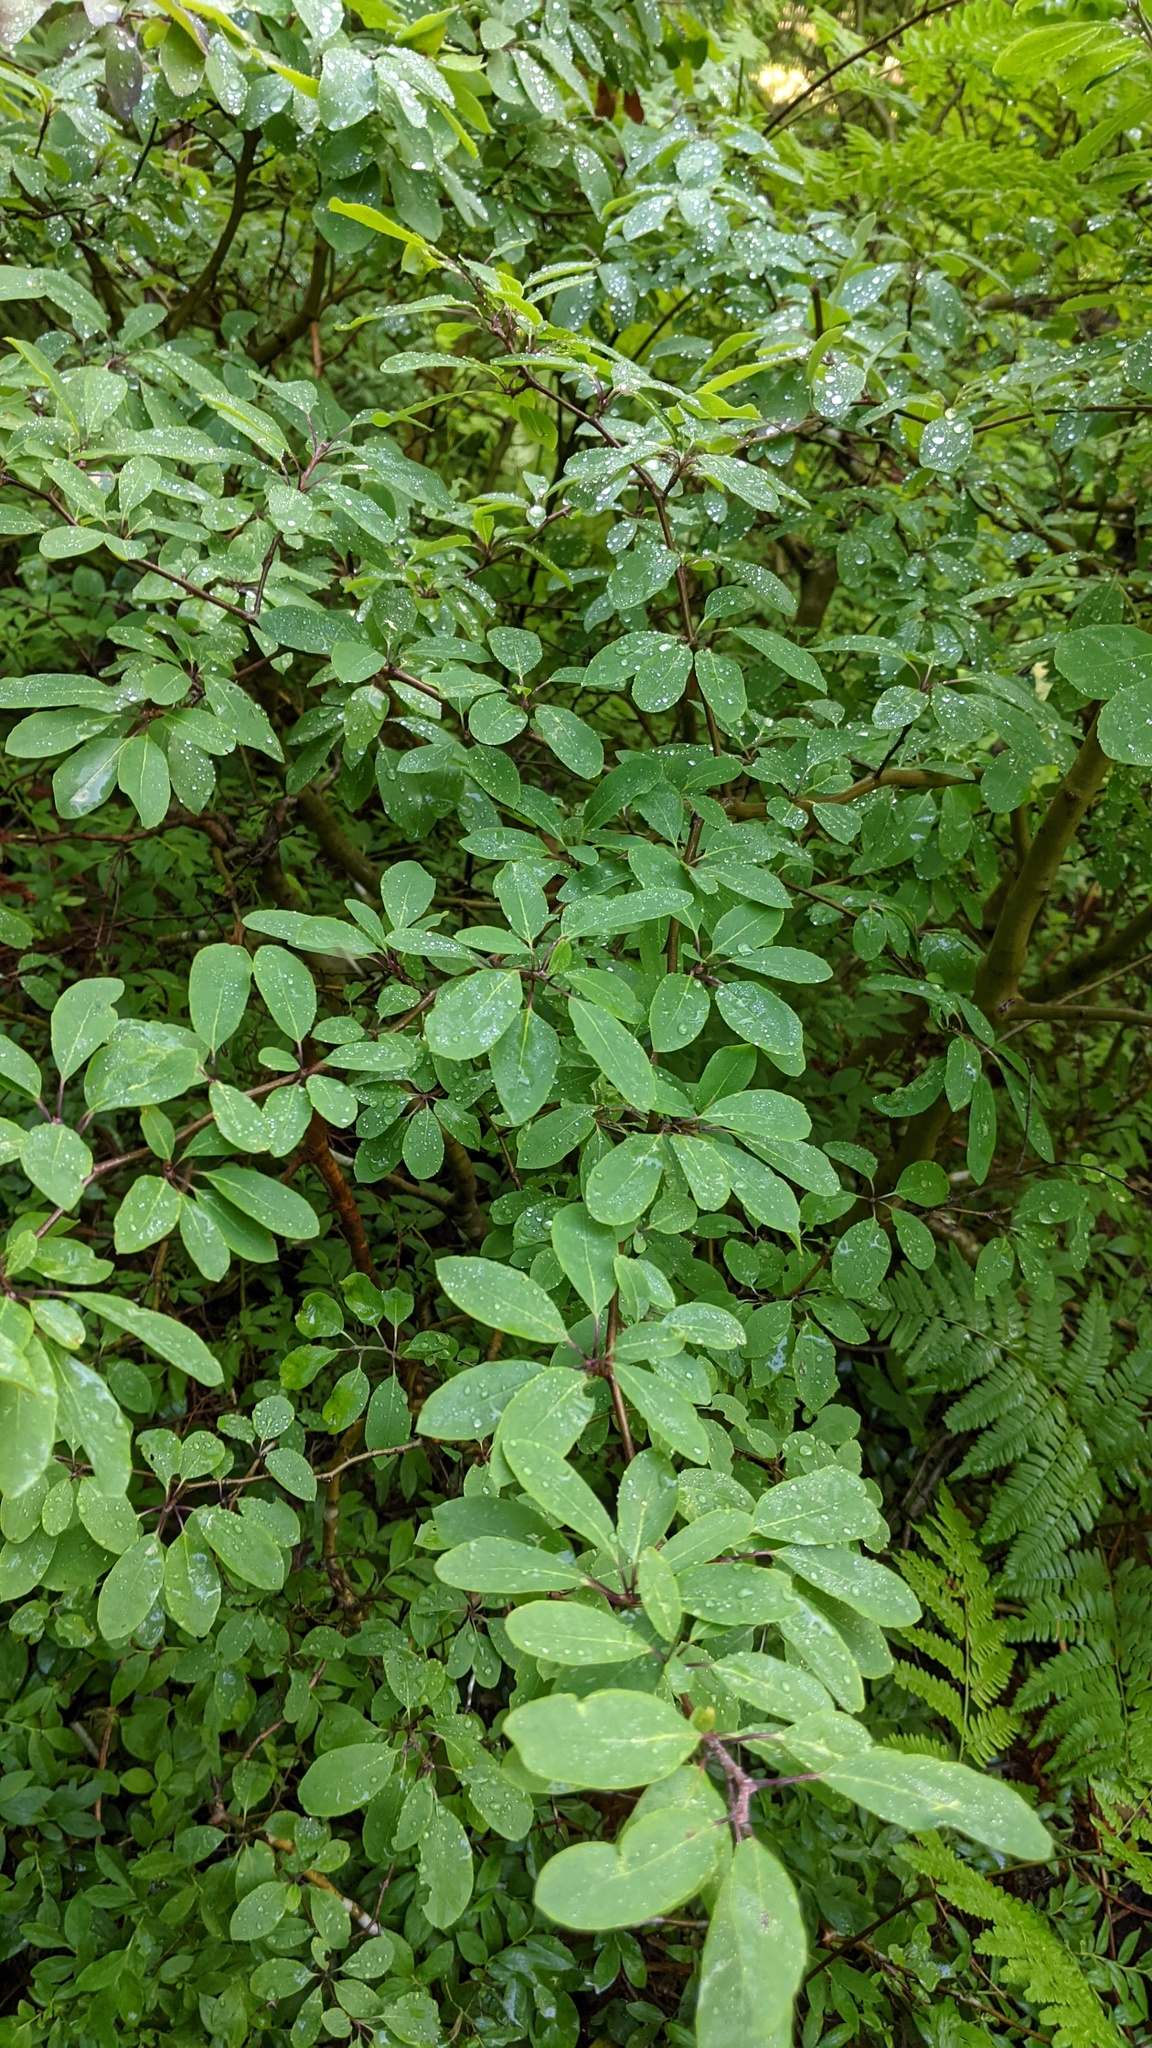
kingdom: Plantae
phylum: Tracheophyta
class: Magnoliopsida
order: Aquifoliales
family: Aquifoliaceae
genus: Ilex
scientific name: Ilex mucronata
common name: Catberry
